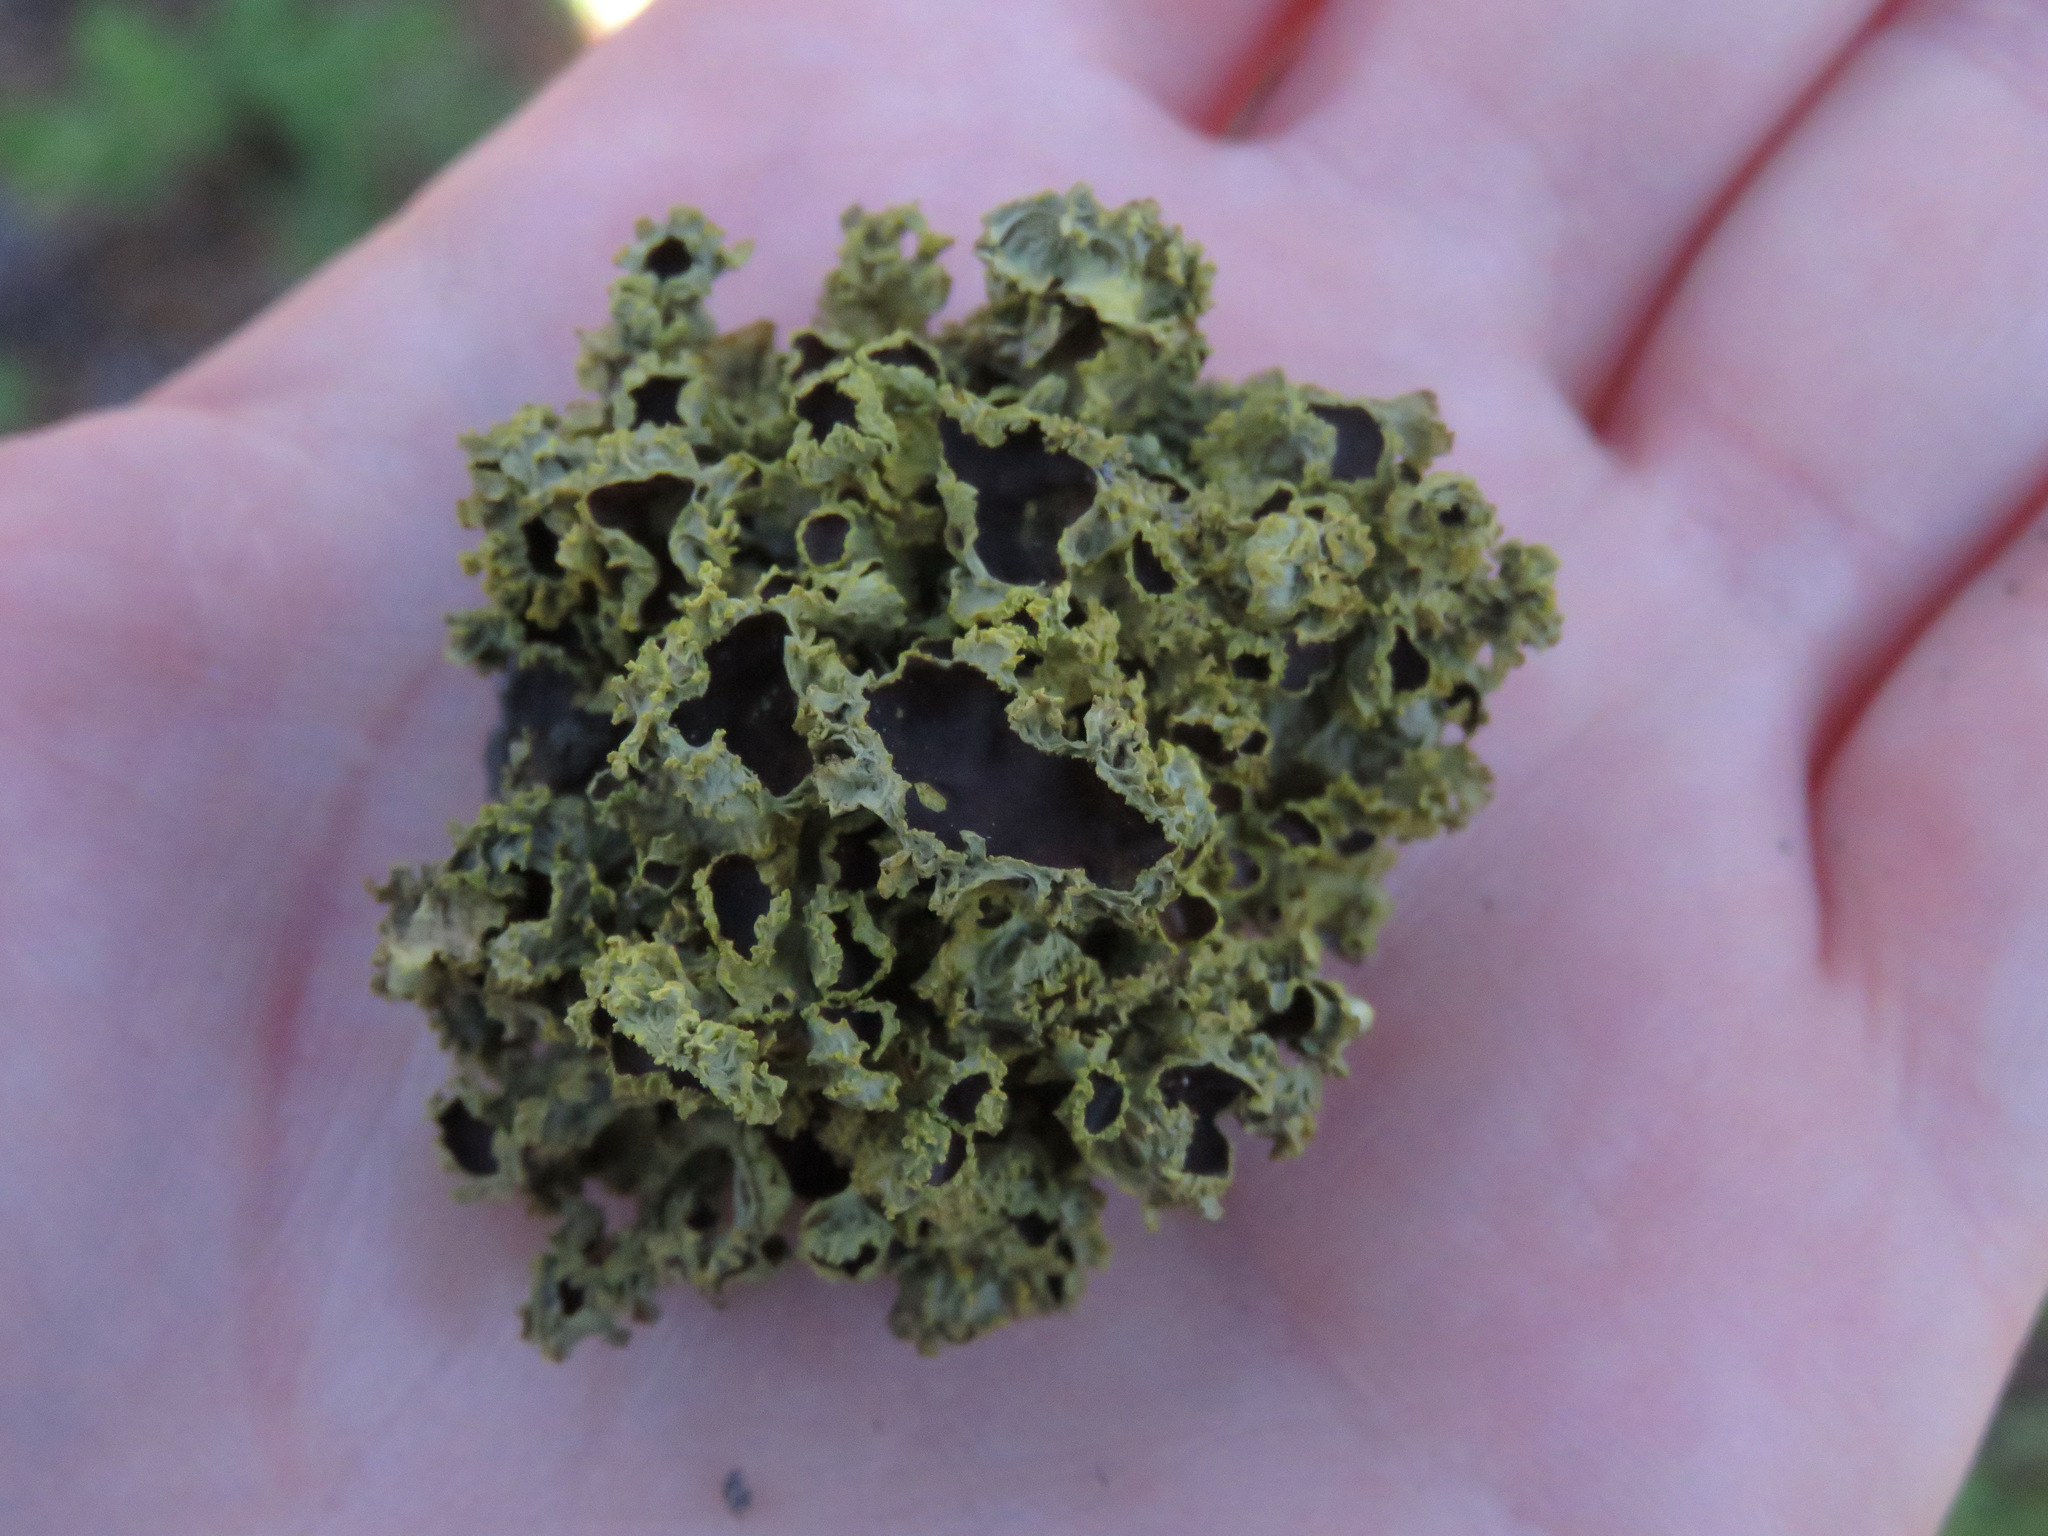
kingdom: Fungi
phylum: Ascomycota
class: Lecanoromycetes
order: Lecanorales
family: Parmeliaceae
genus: Vulpicida
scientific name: Vulpicida canadensis
